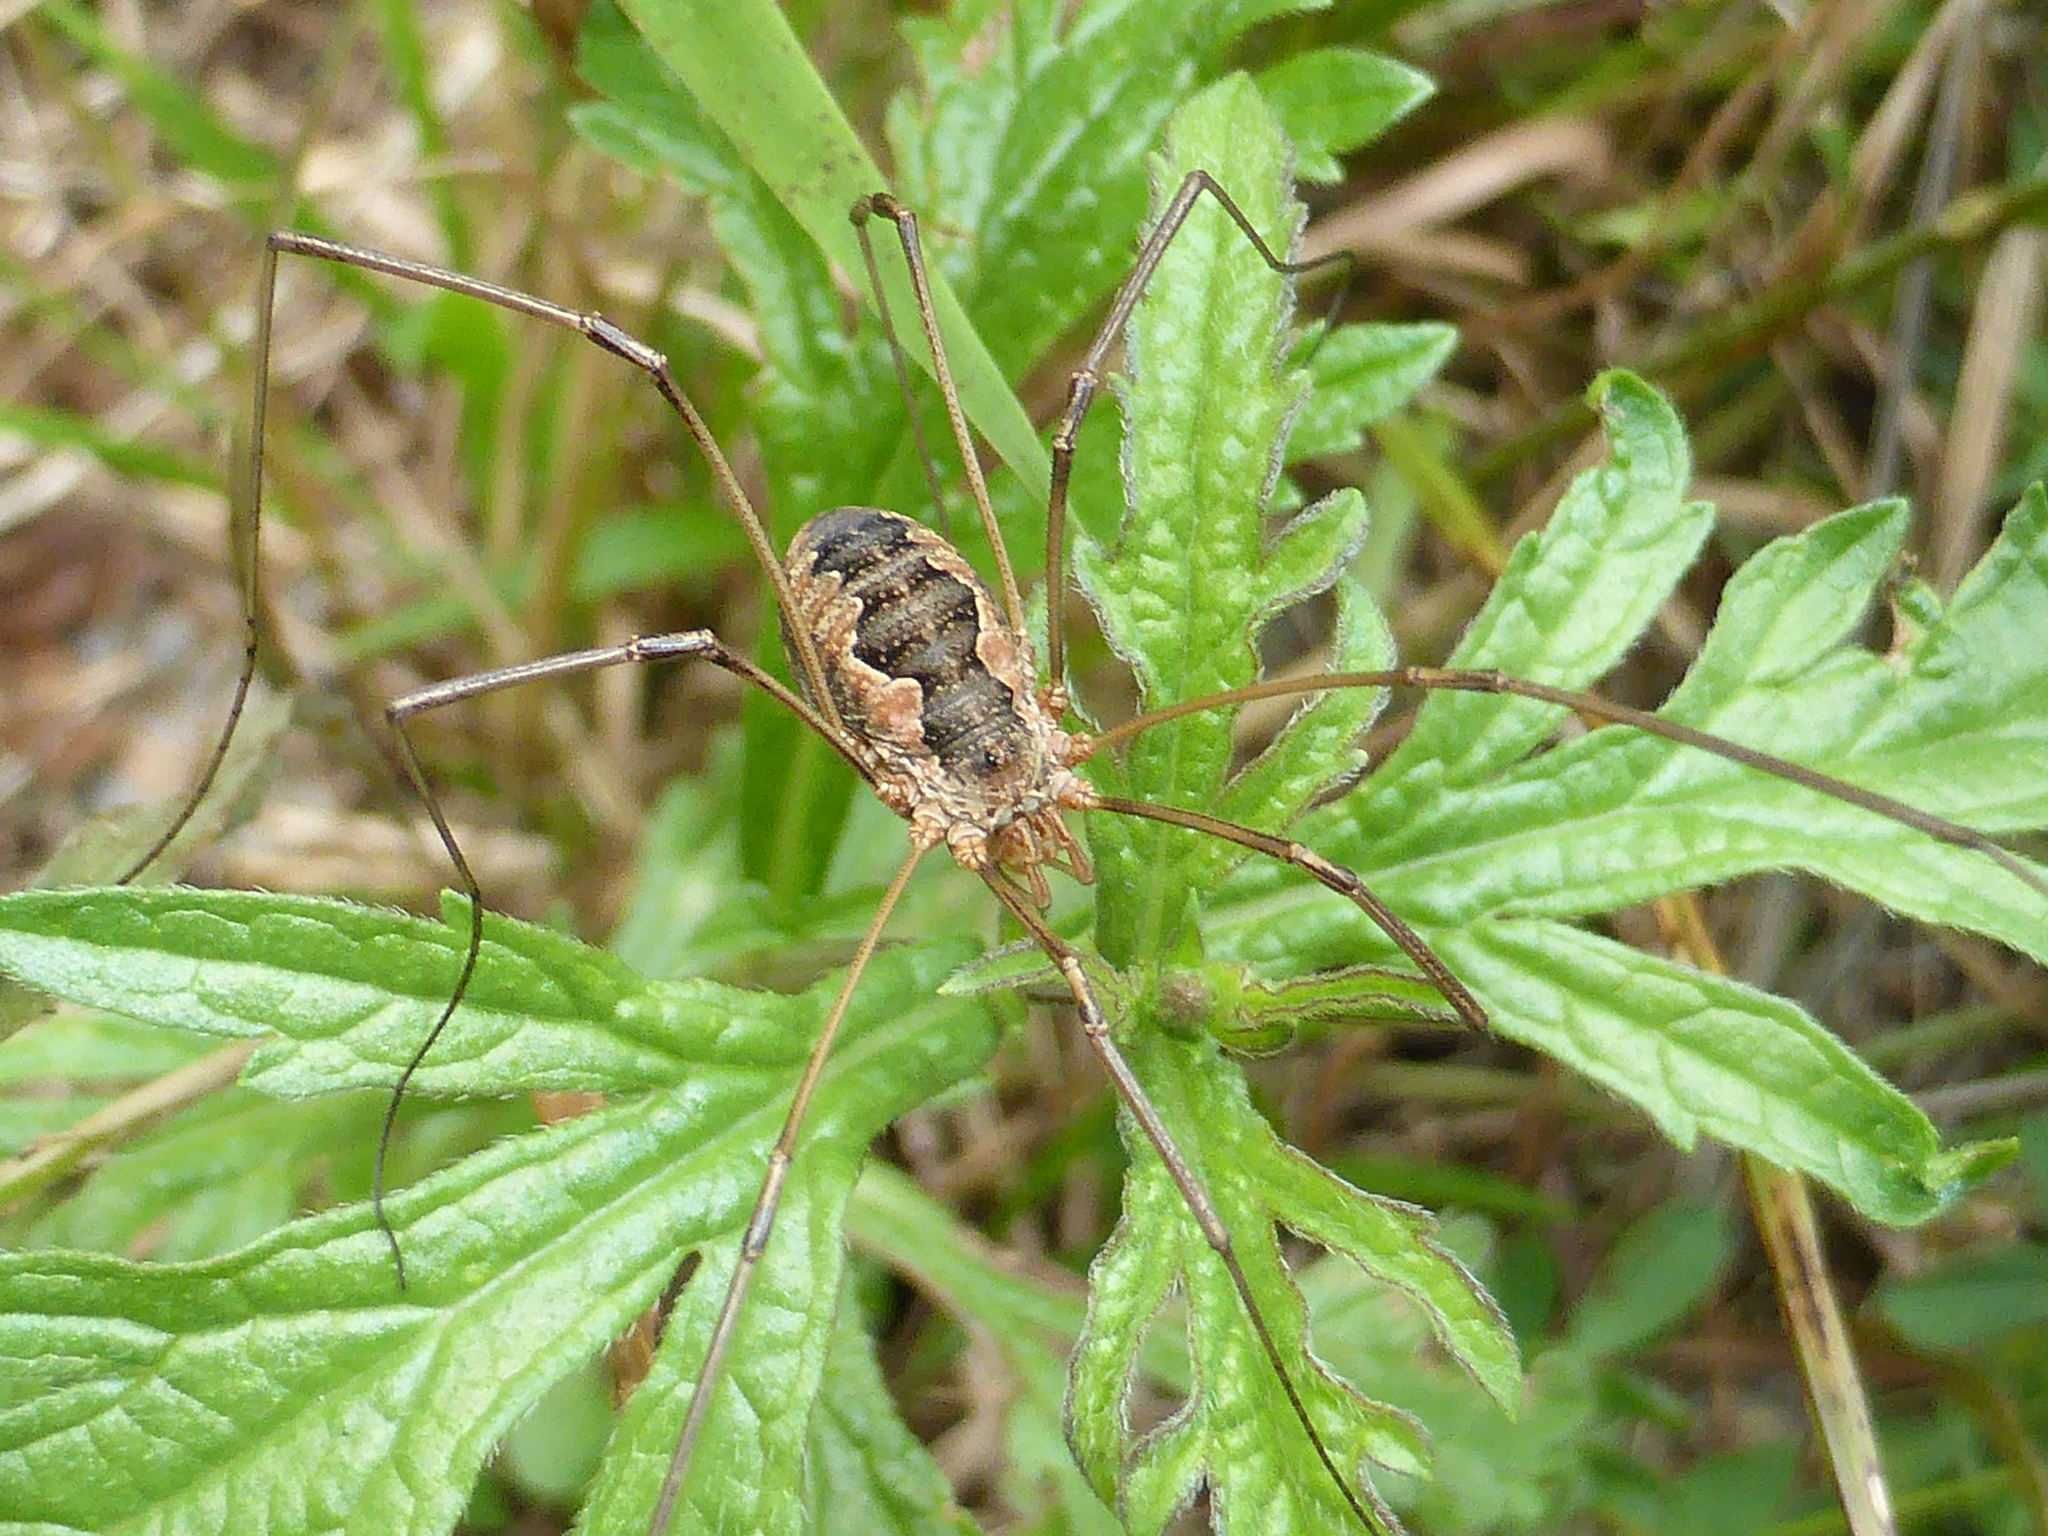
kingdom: Animalia
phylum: Arthropoda
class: Arachnida
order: Opiliones
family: Phalangiidae
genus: Phalangium
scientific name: Phalangium opilio
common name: Daddy longleg
